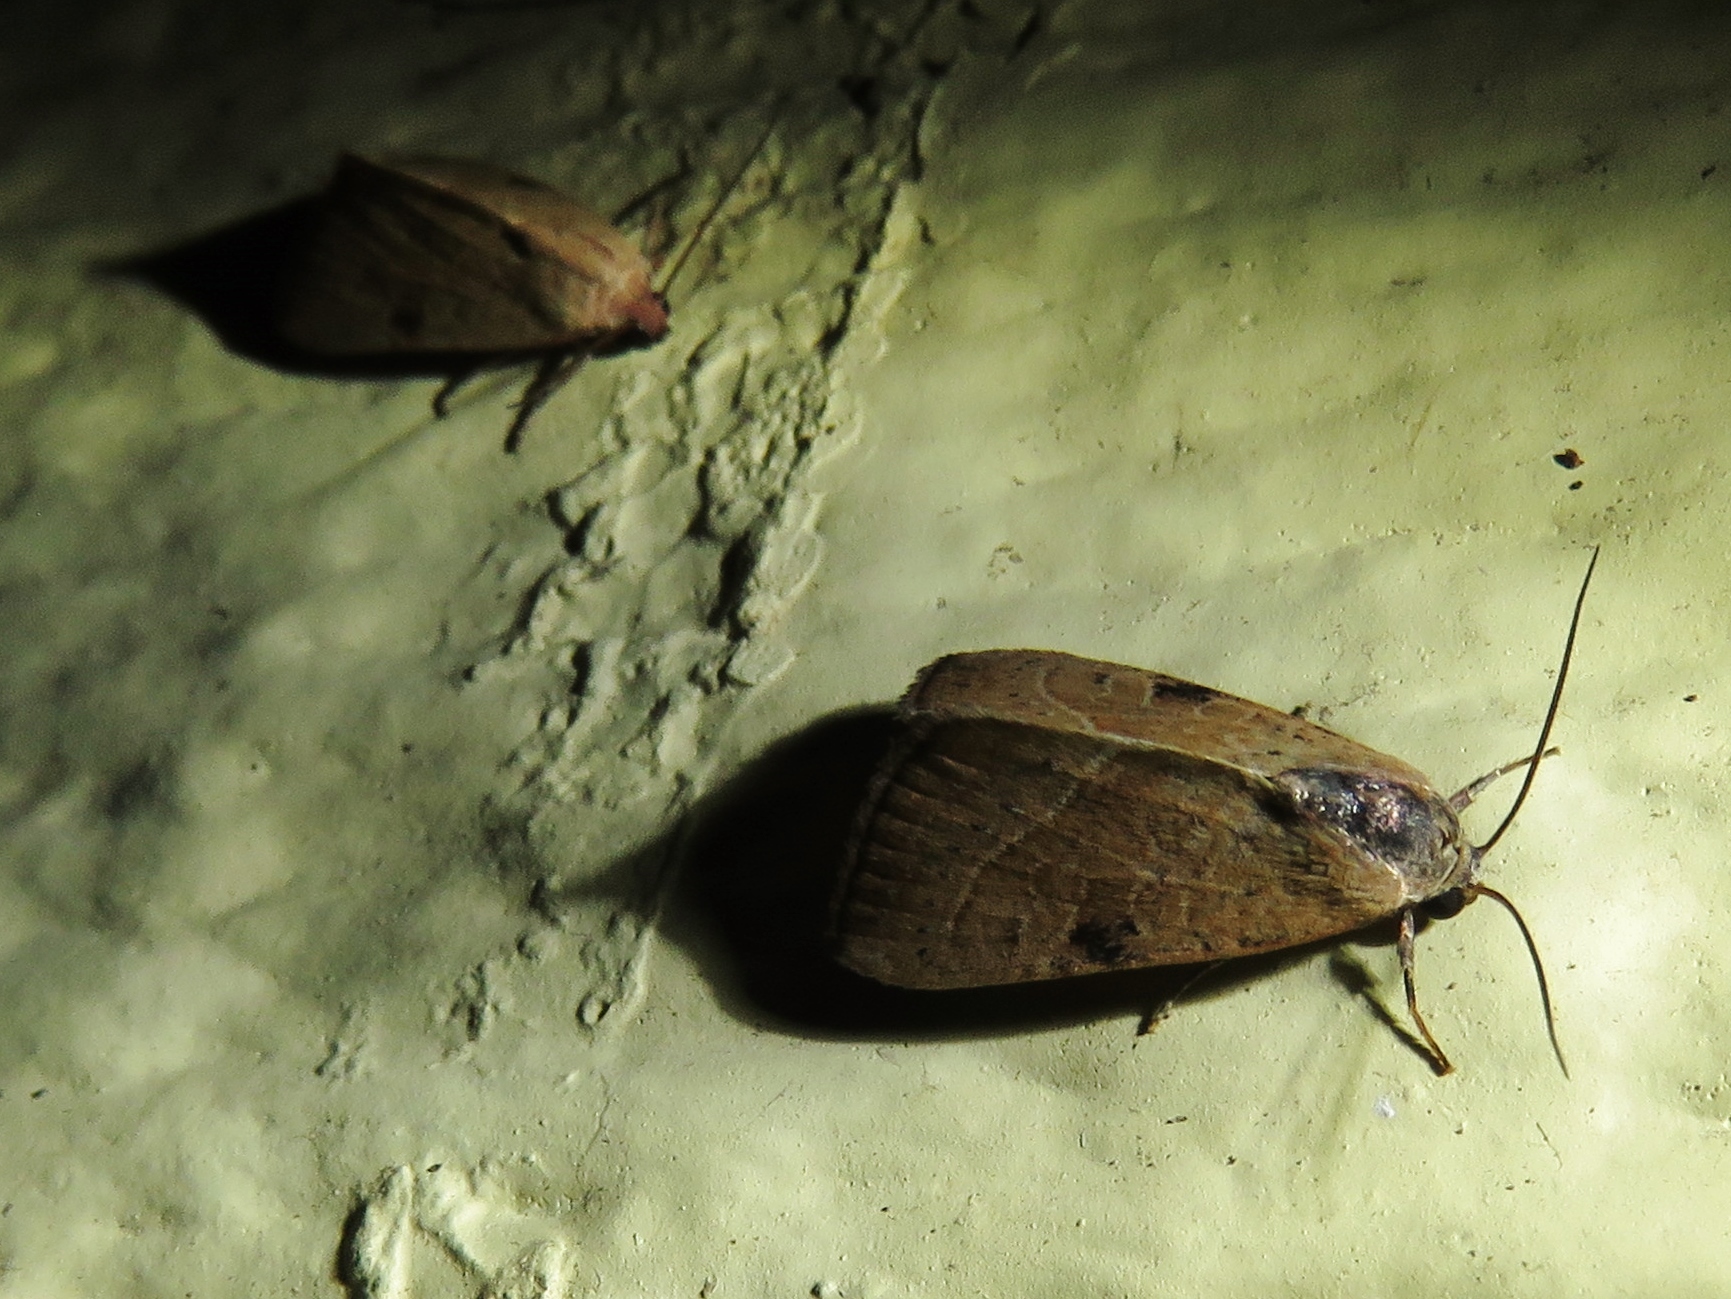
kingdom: Animalia
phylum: Arthropoda
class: Insecta
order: Lepidoptera
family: Noctuidae
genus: Galgula
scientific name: Galgula partita
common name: Wedgeling
